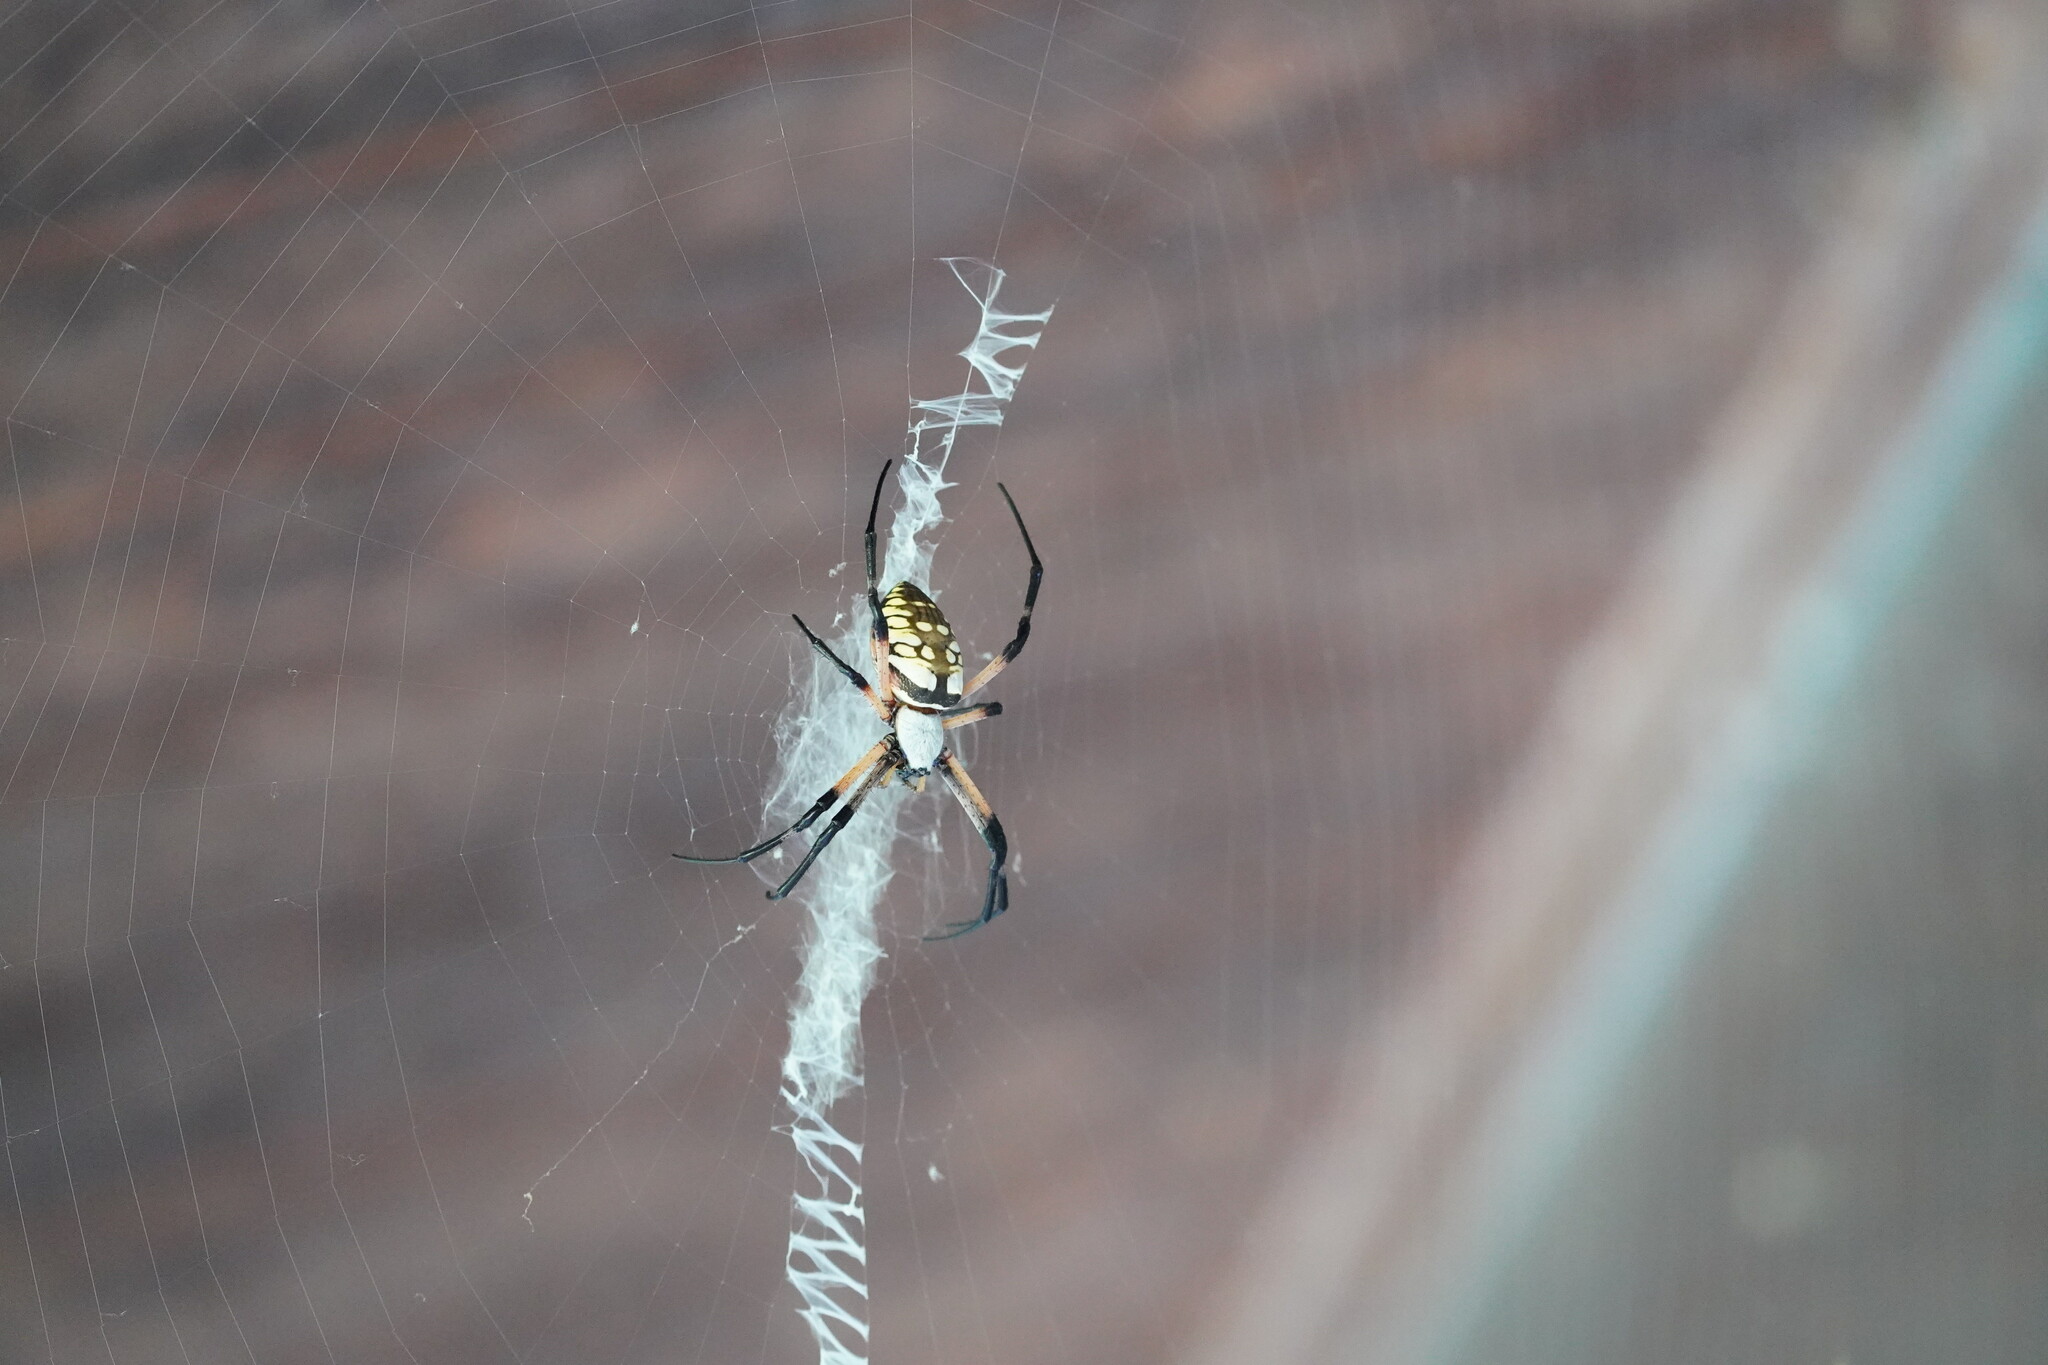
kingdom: Animalia
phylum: Arthropoda
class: Arachnida
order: Araneae
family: Araneidae
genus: Argiope
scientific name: Argiope aurantia
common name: Orb weavers
